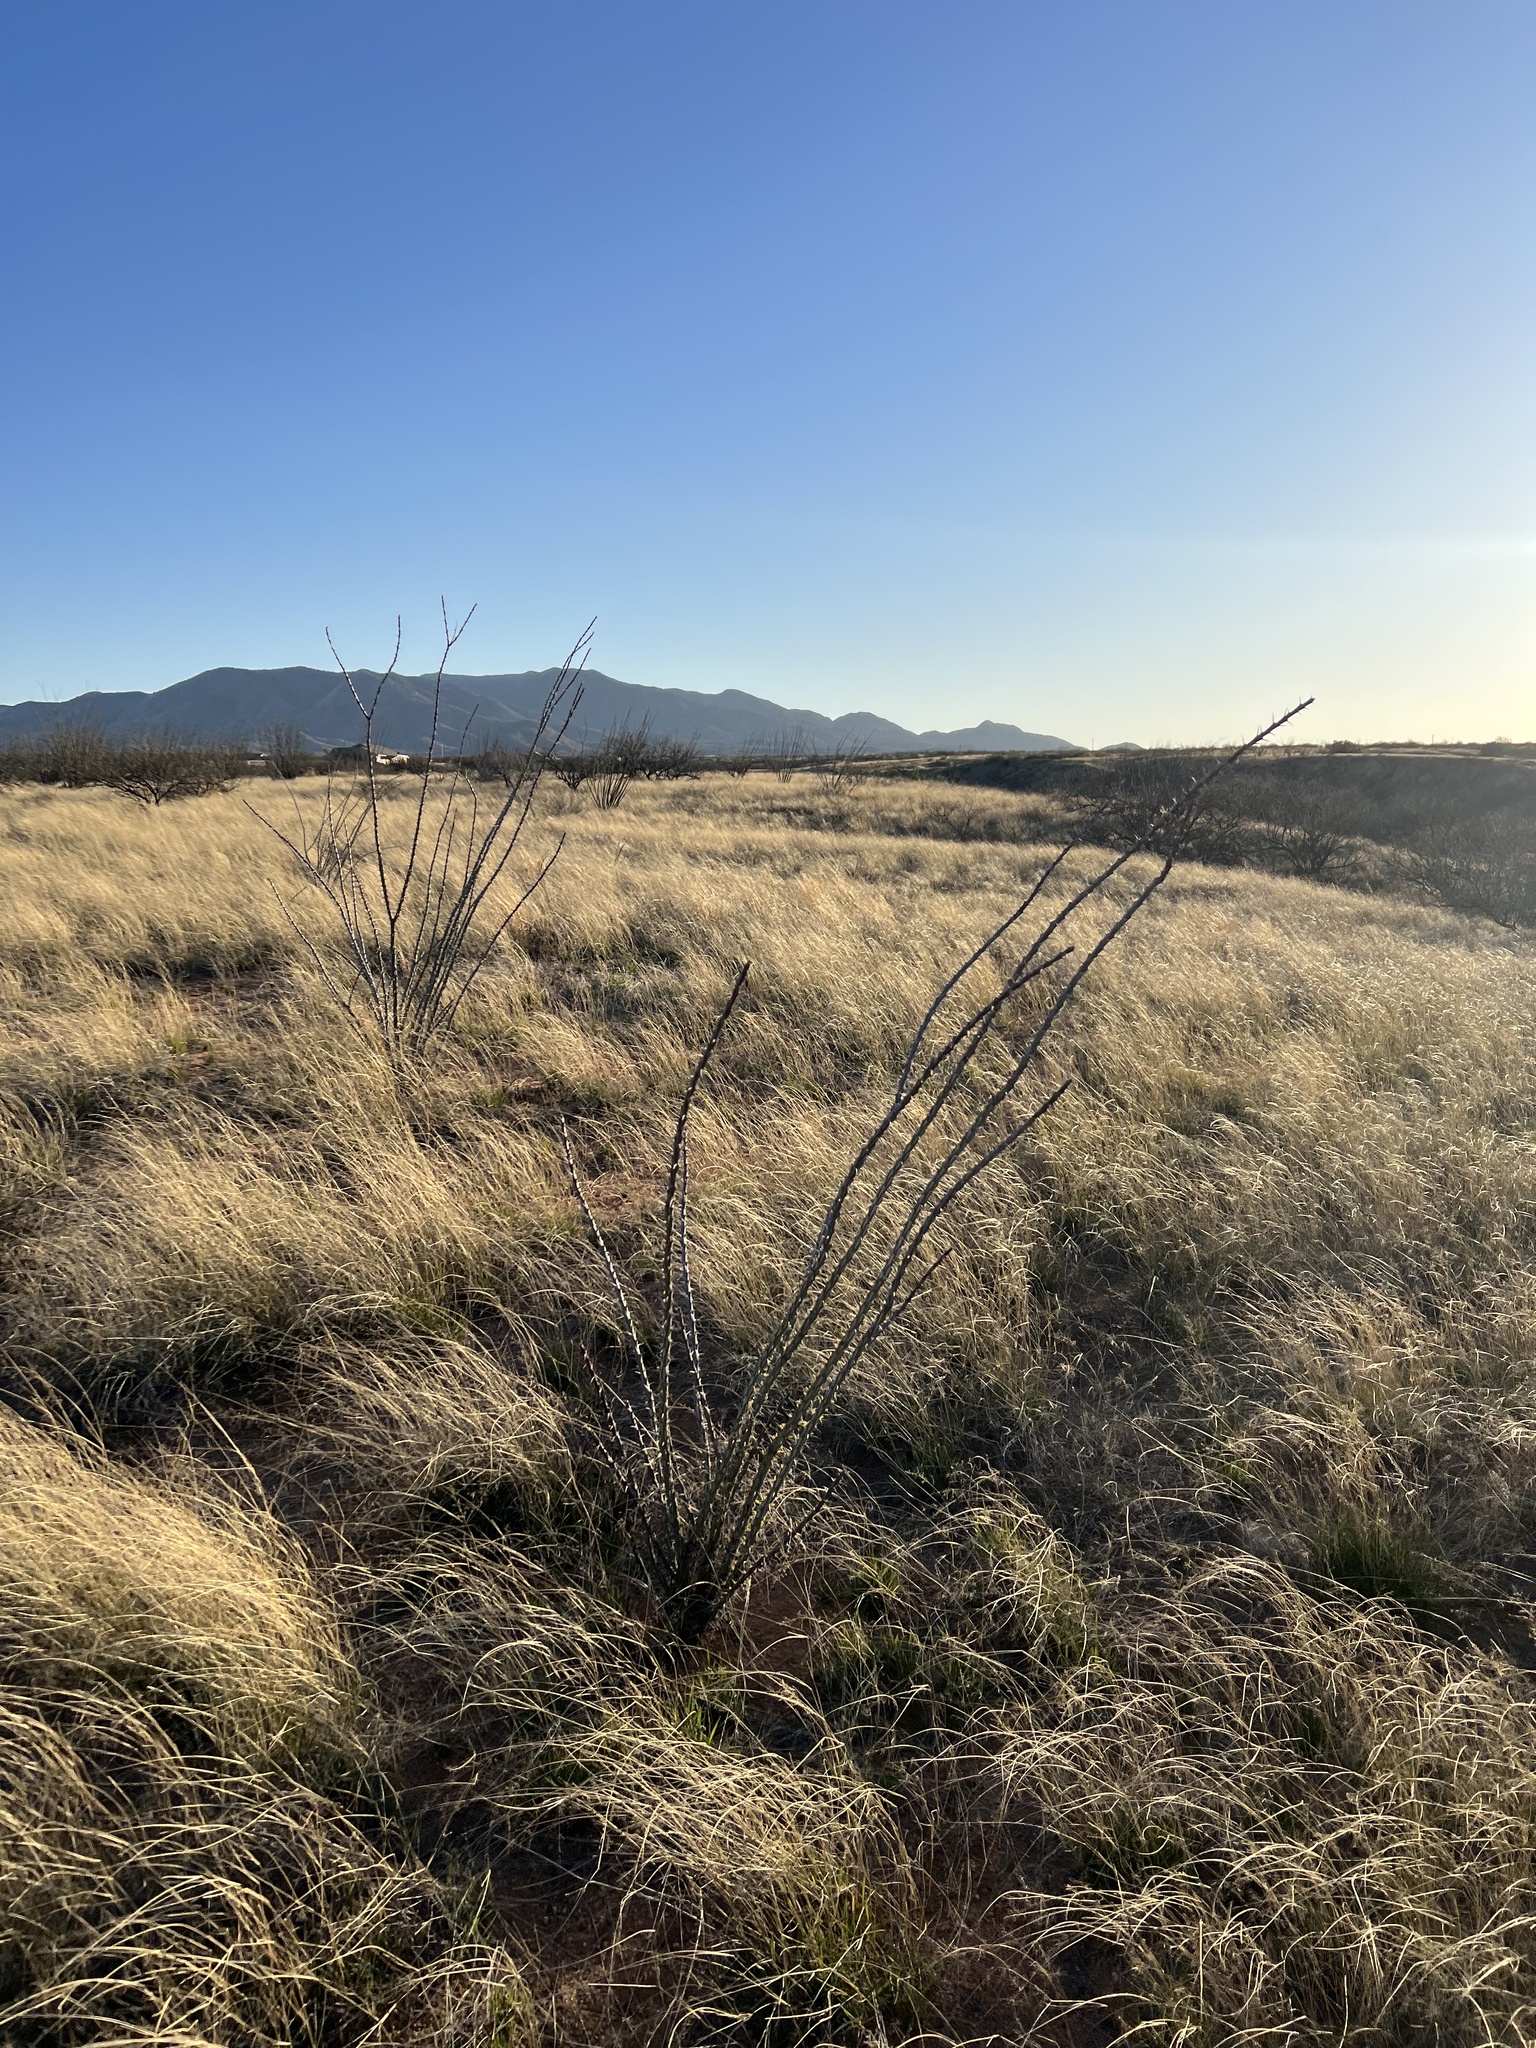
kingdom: Plantae
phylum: Tracheophyta
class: Magnoliopsida
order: Ericales
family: Fouquieriaceae
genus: Fouquieria
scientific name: Fouquieria splendens
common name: Vine-cactus
